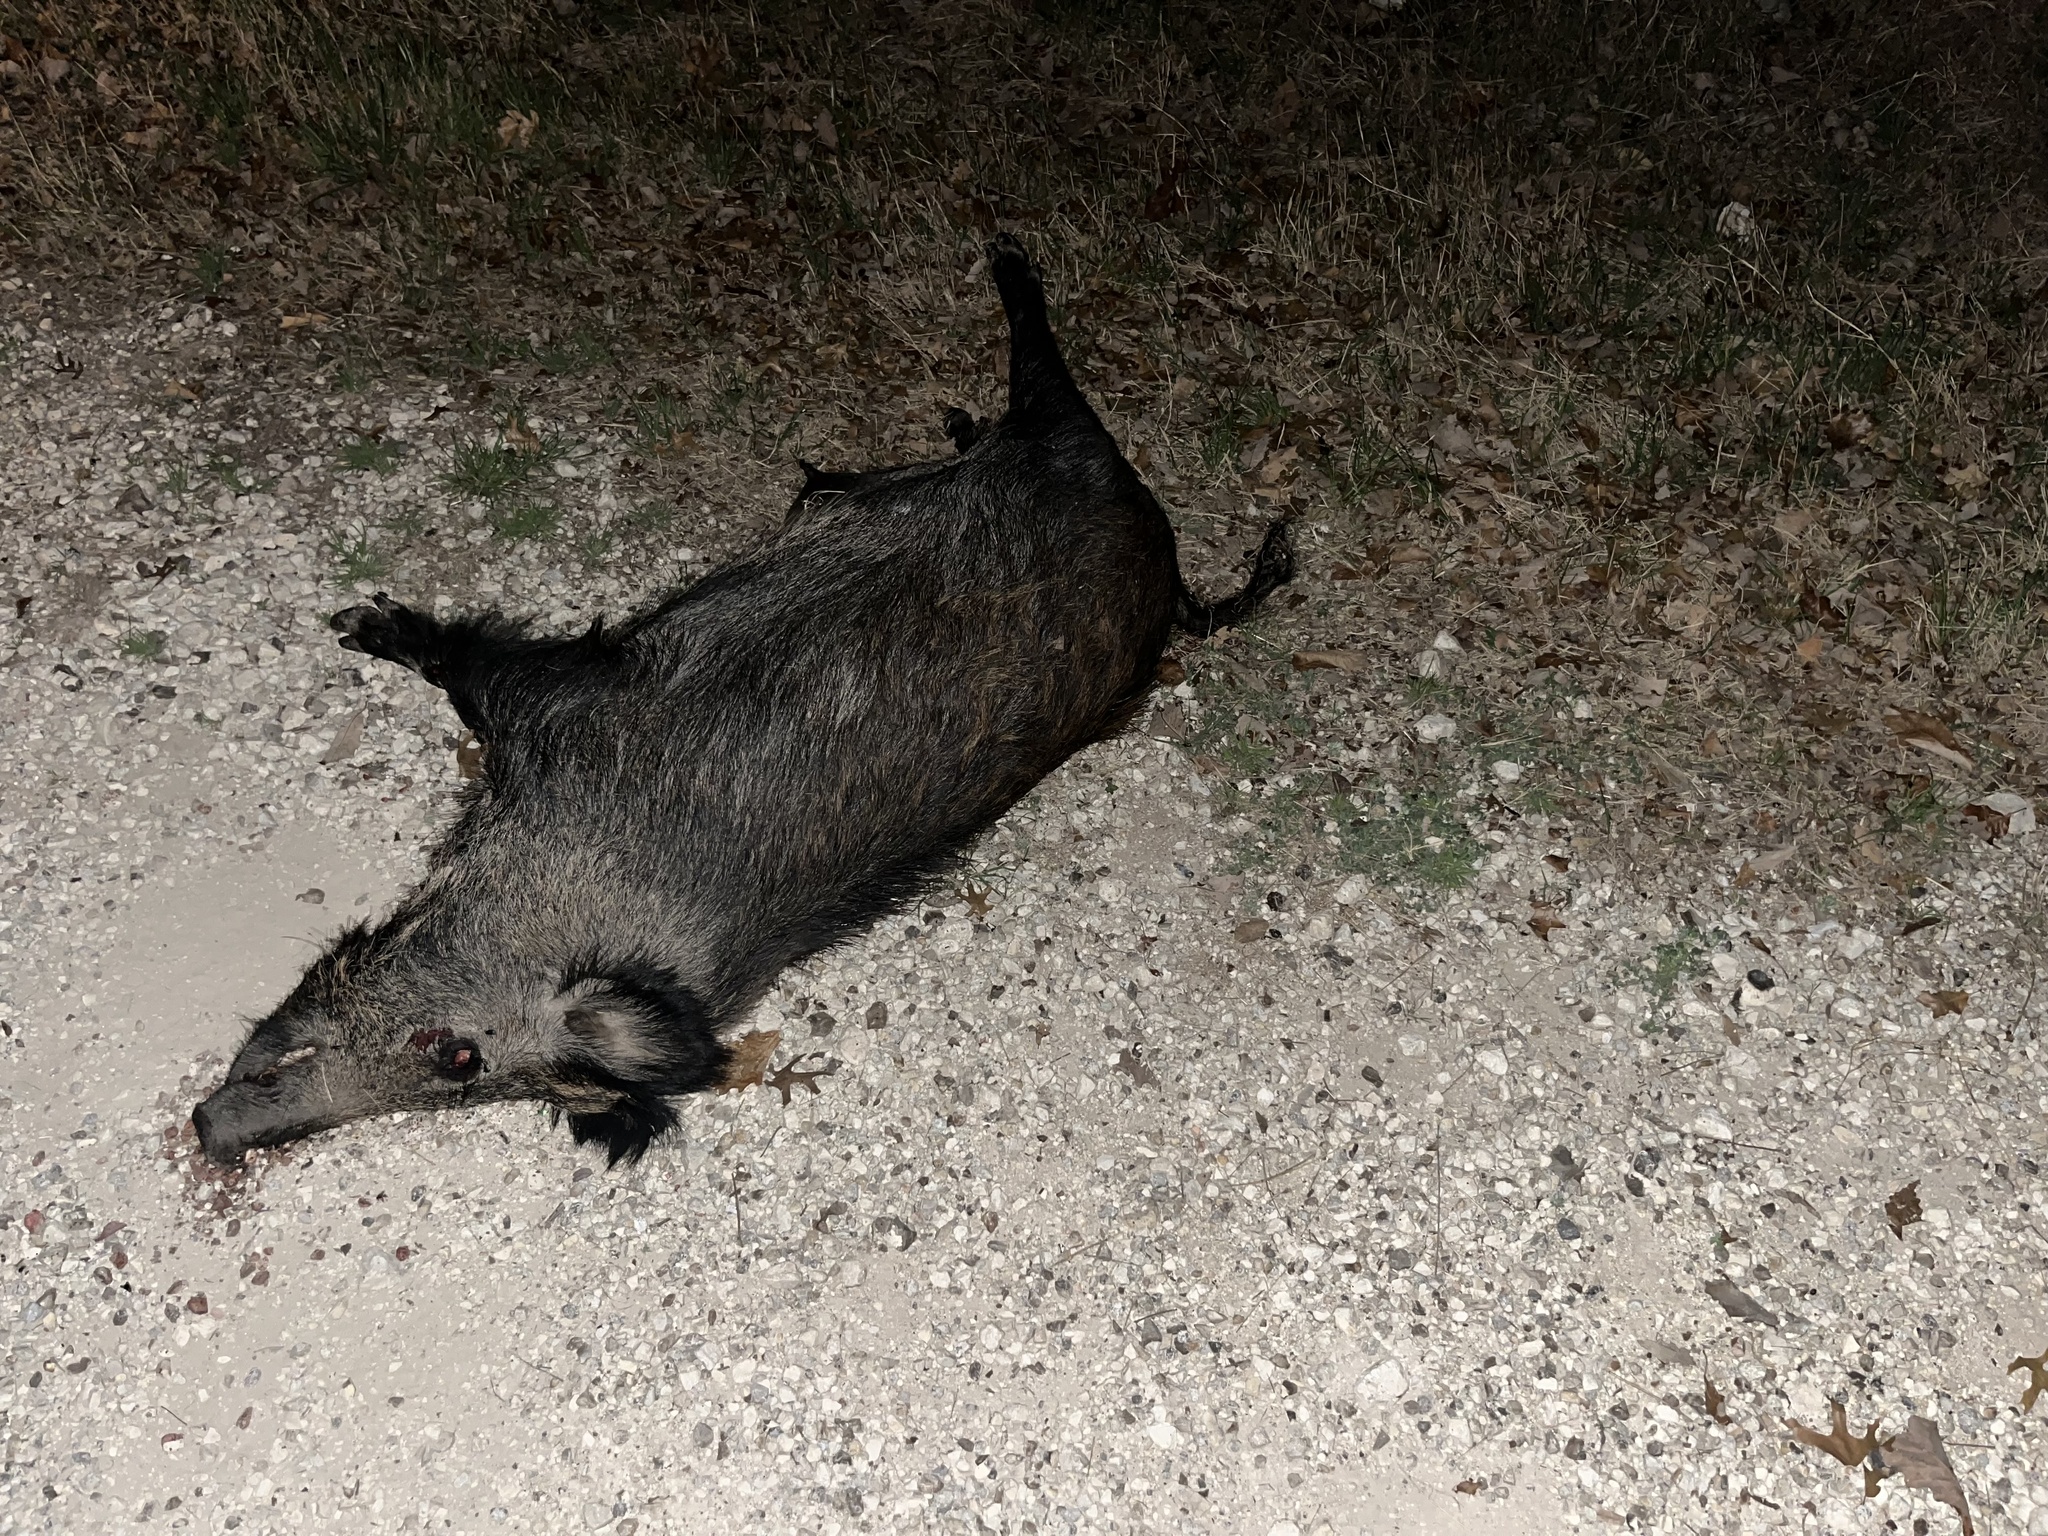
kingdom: Animalia
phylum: Chordata
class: Mammalia
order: Artiodactyla
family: Suidae
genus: Sus
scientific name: Sus scrofa
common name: Wild boar
